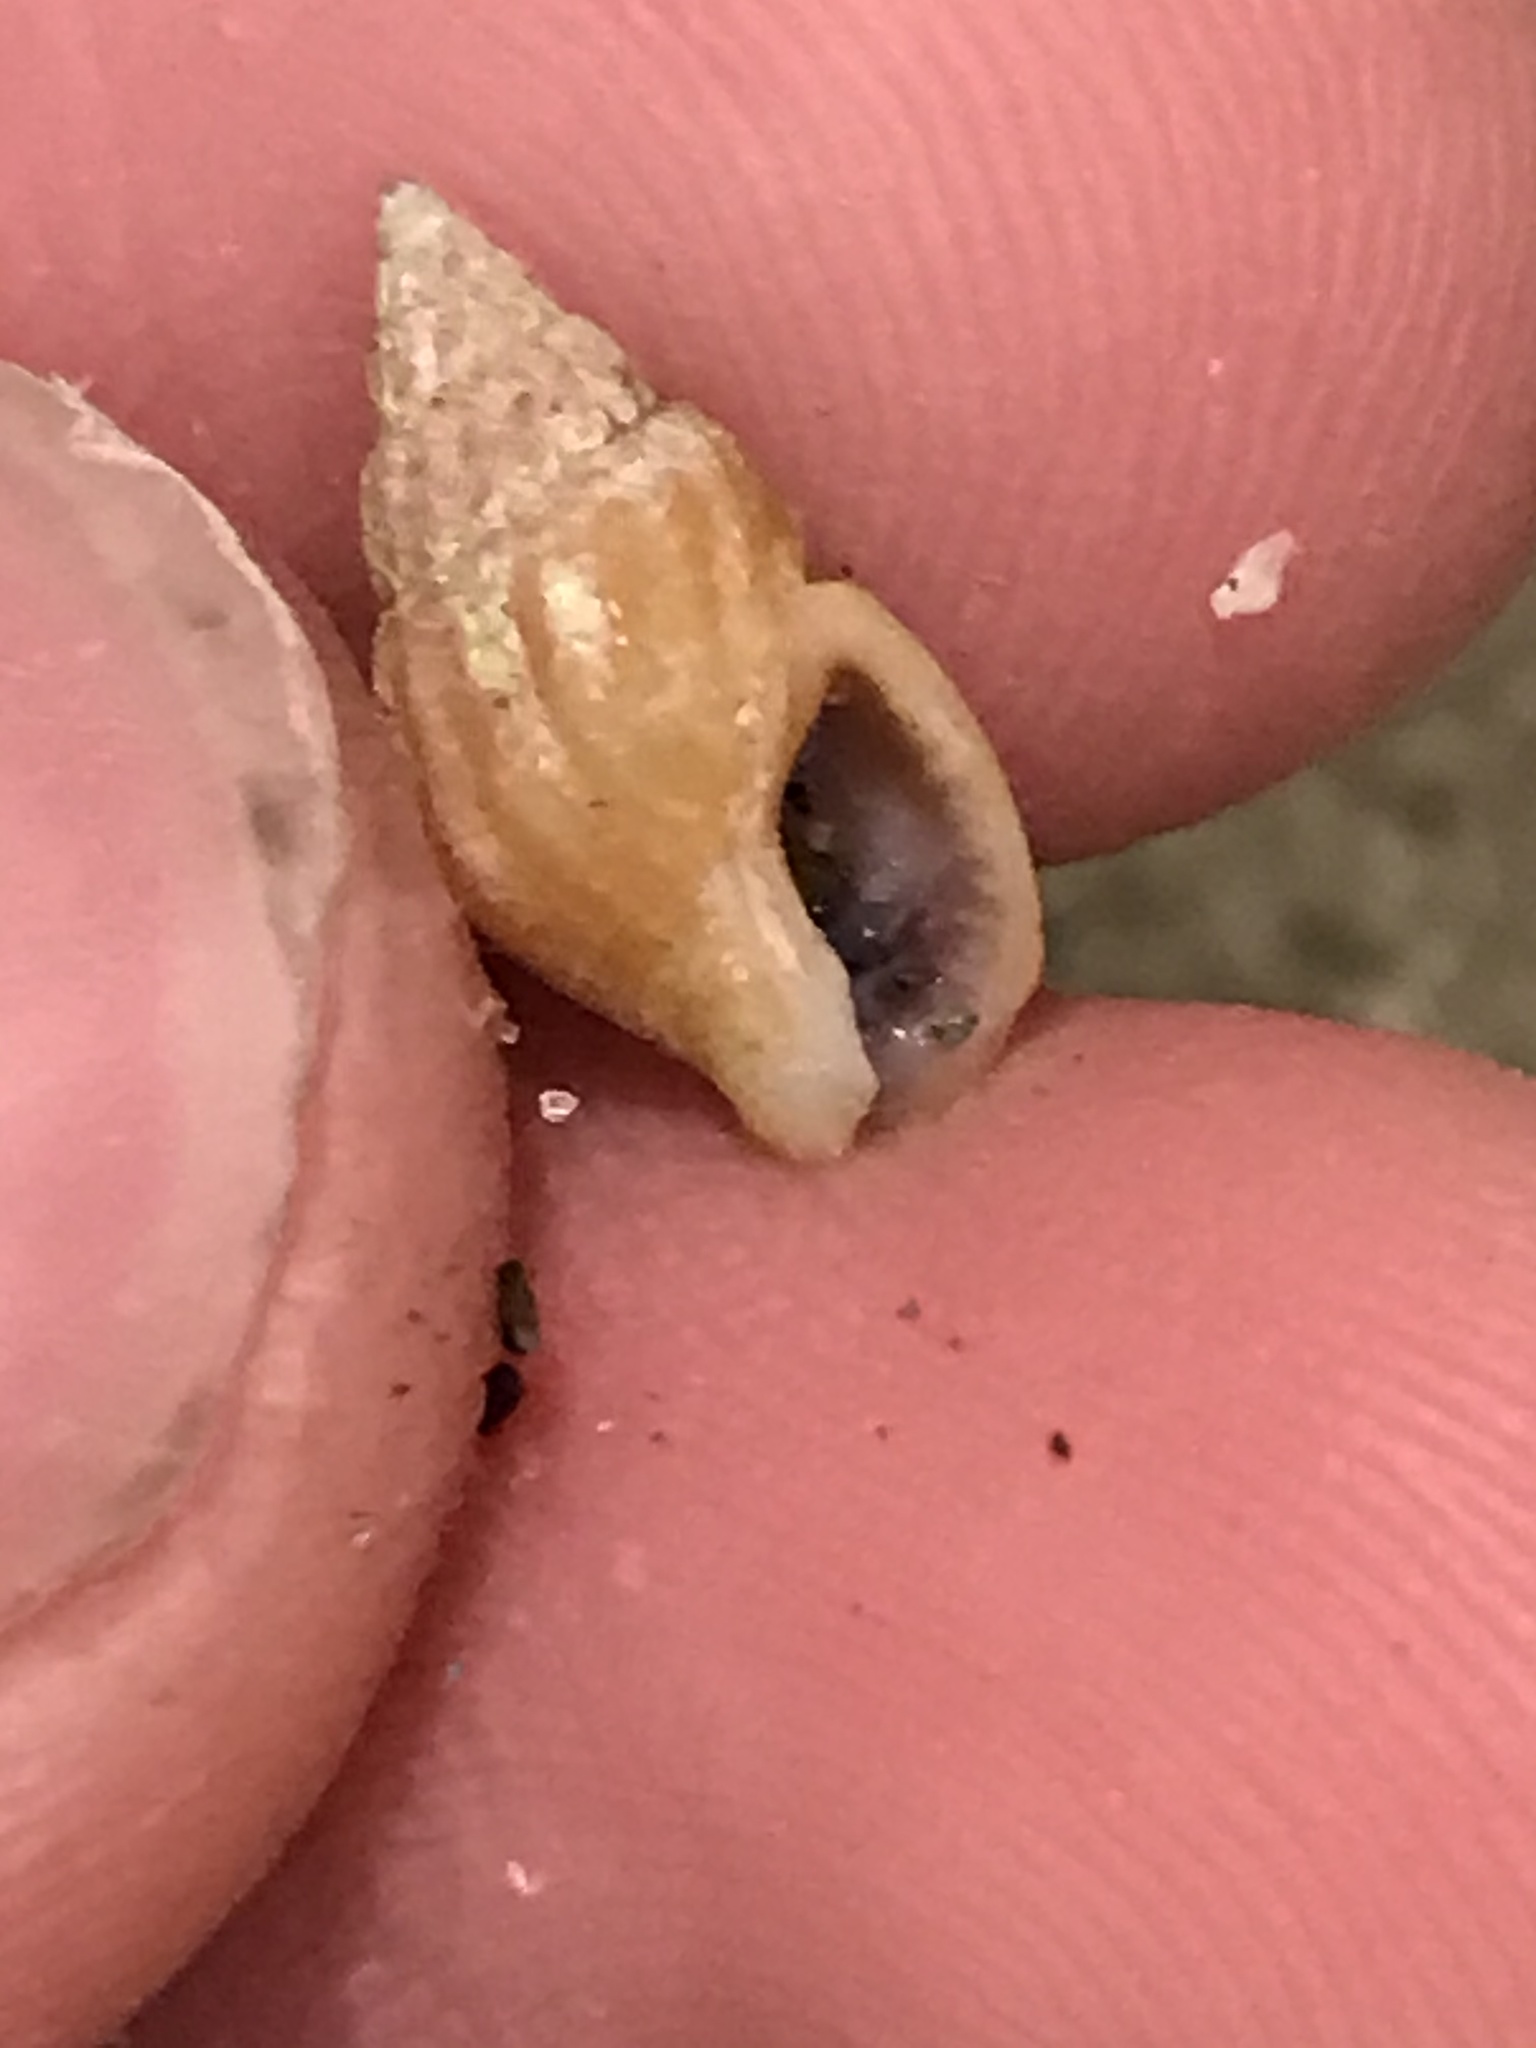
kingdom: Animalia
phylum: Mollusca
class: Gastropoda
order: Neogastropoda
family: Columbellidae
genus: Amphissa
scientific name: Amphissa versicolor
